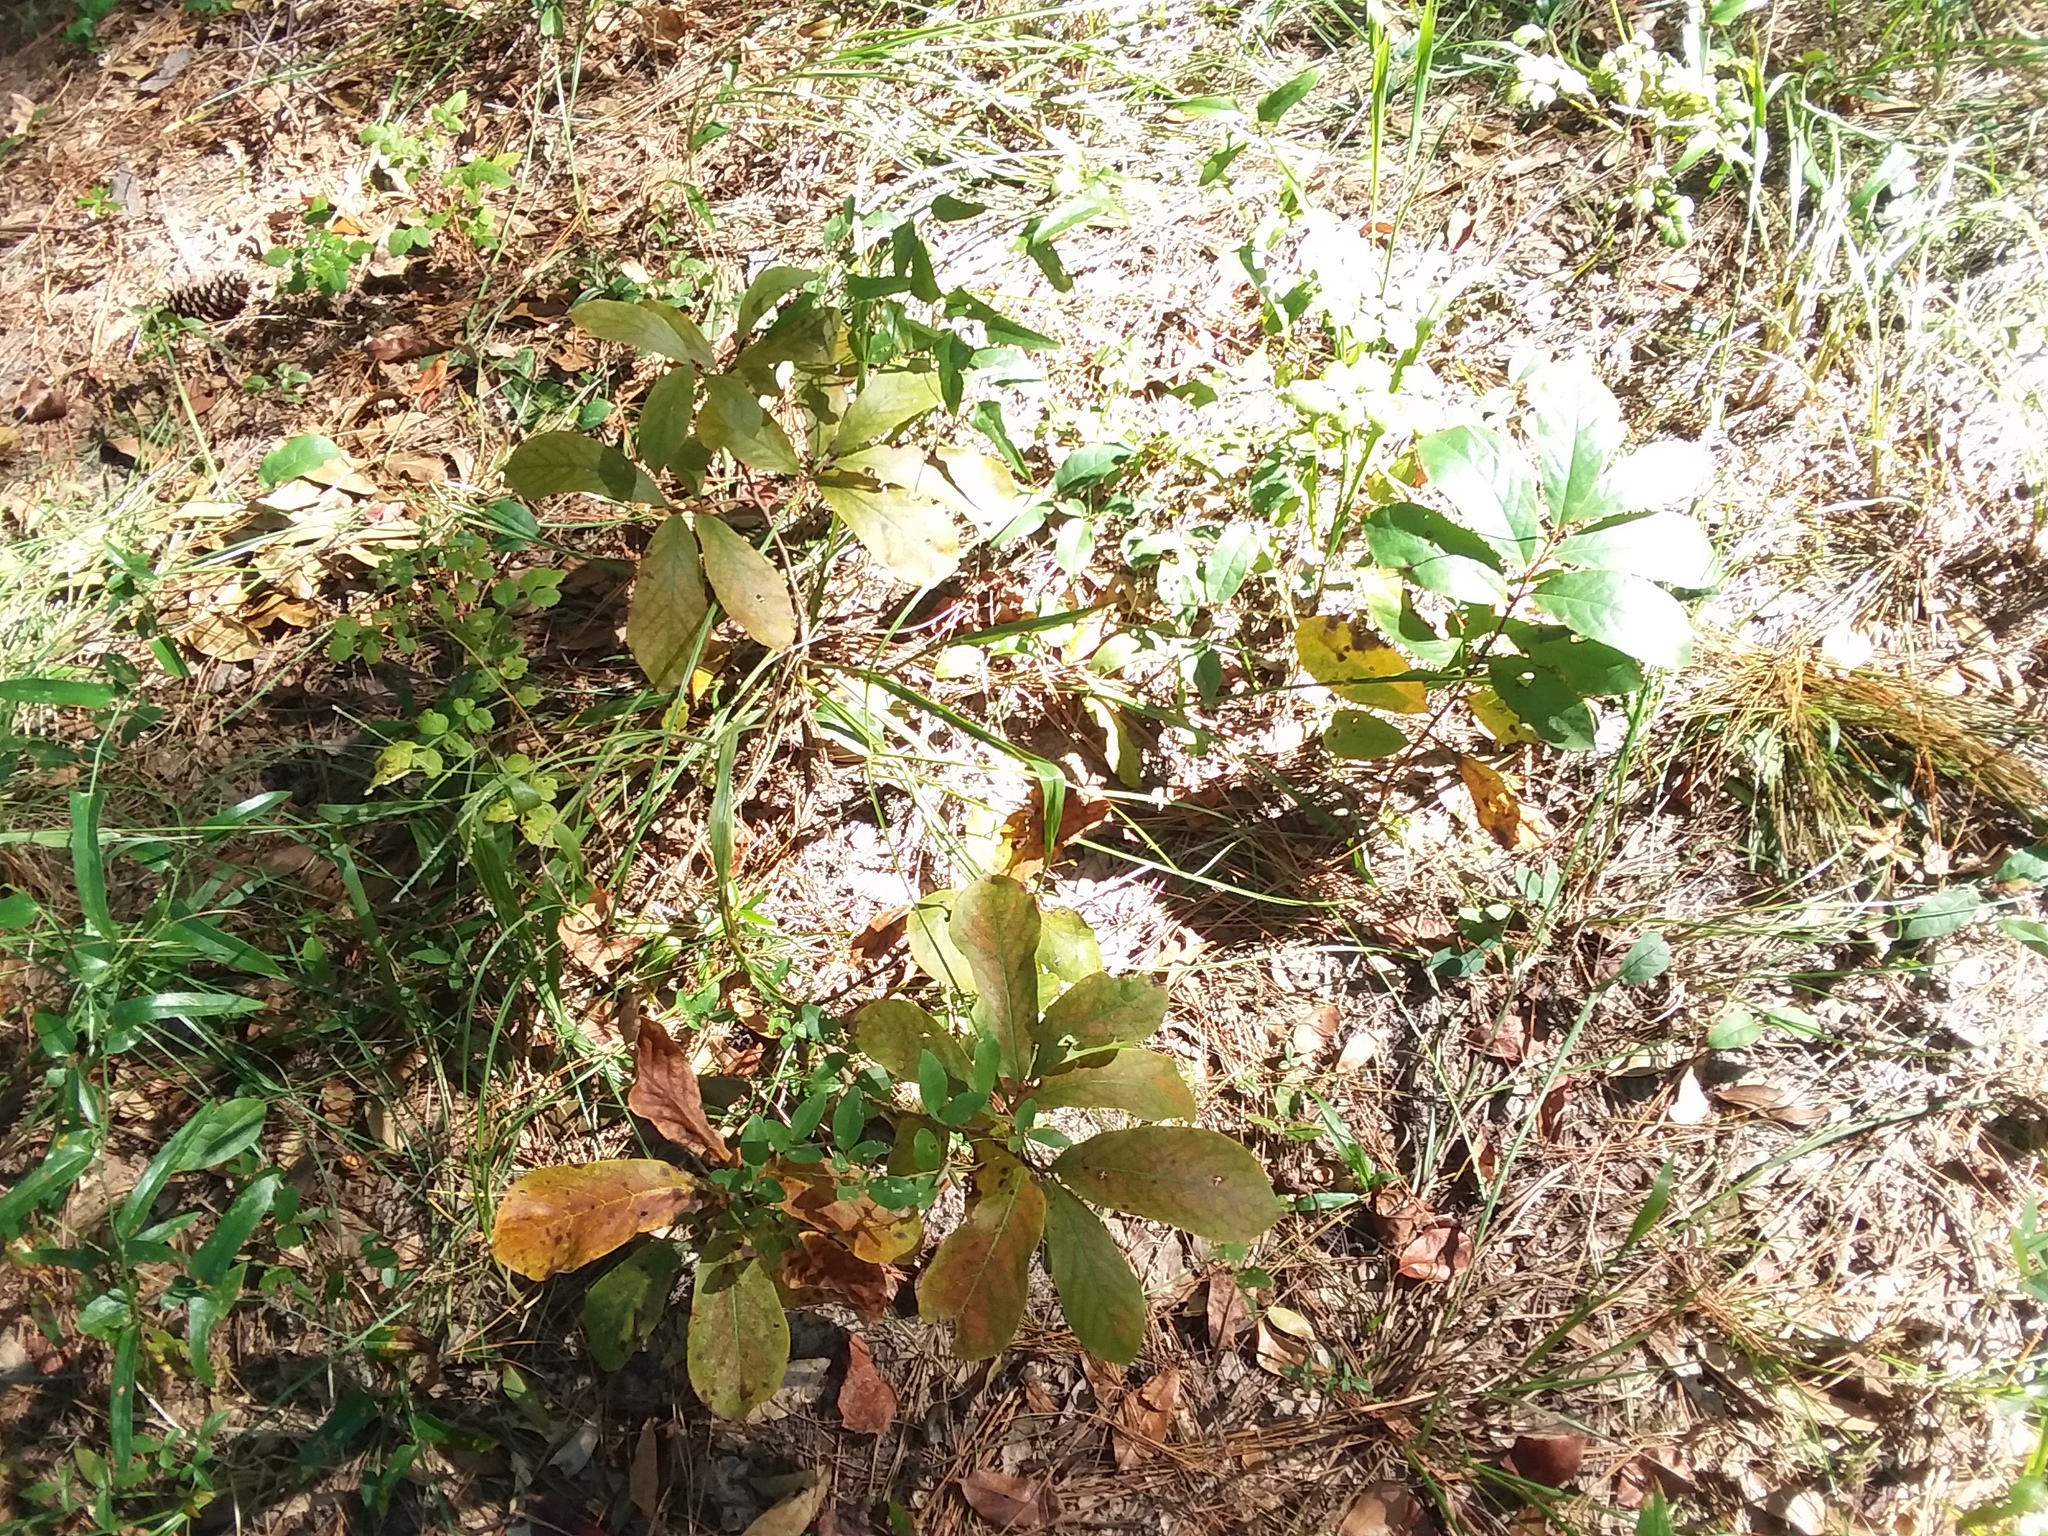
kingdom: Plantae
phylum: Tracheophyta
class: Magnoliopsida
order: Magnoliales
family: Annonaceae
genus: Asimina
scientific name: Asimina parviflora
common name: Dwarf pawpaw
